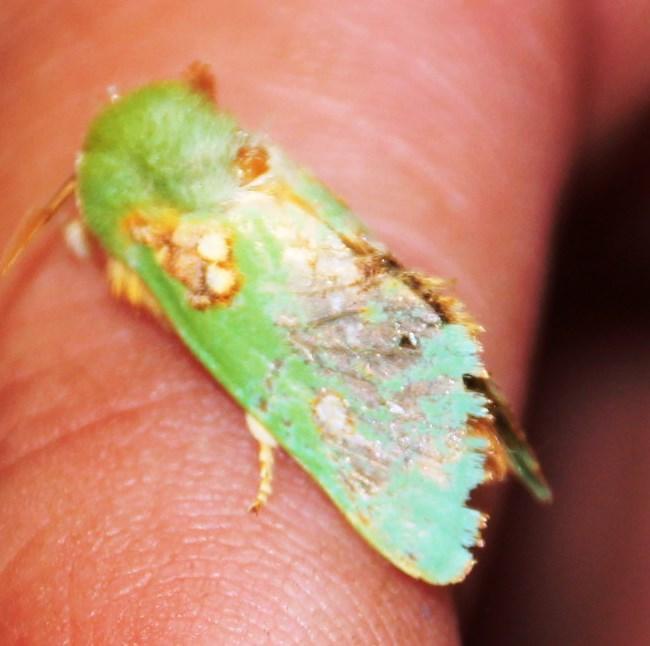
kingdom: Animalia
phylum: Arthropoda
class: Insecta
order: Lepidoptera
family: Limacodidae
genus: Taeda
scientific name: Taeda aetitis
